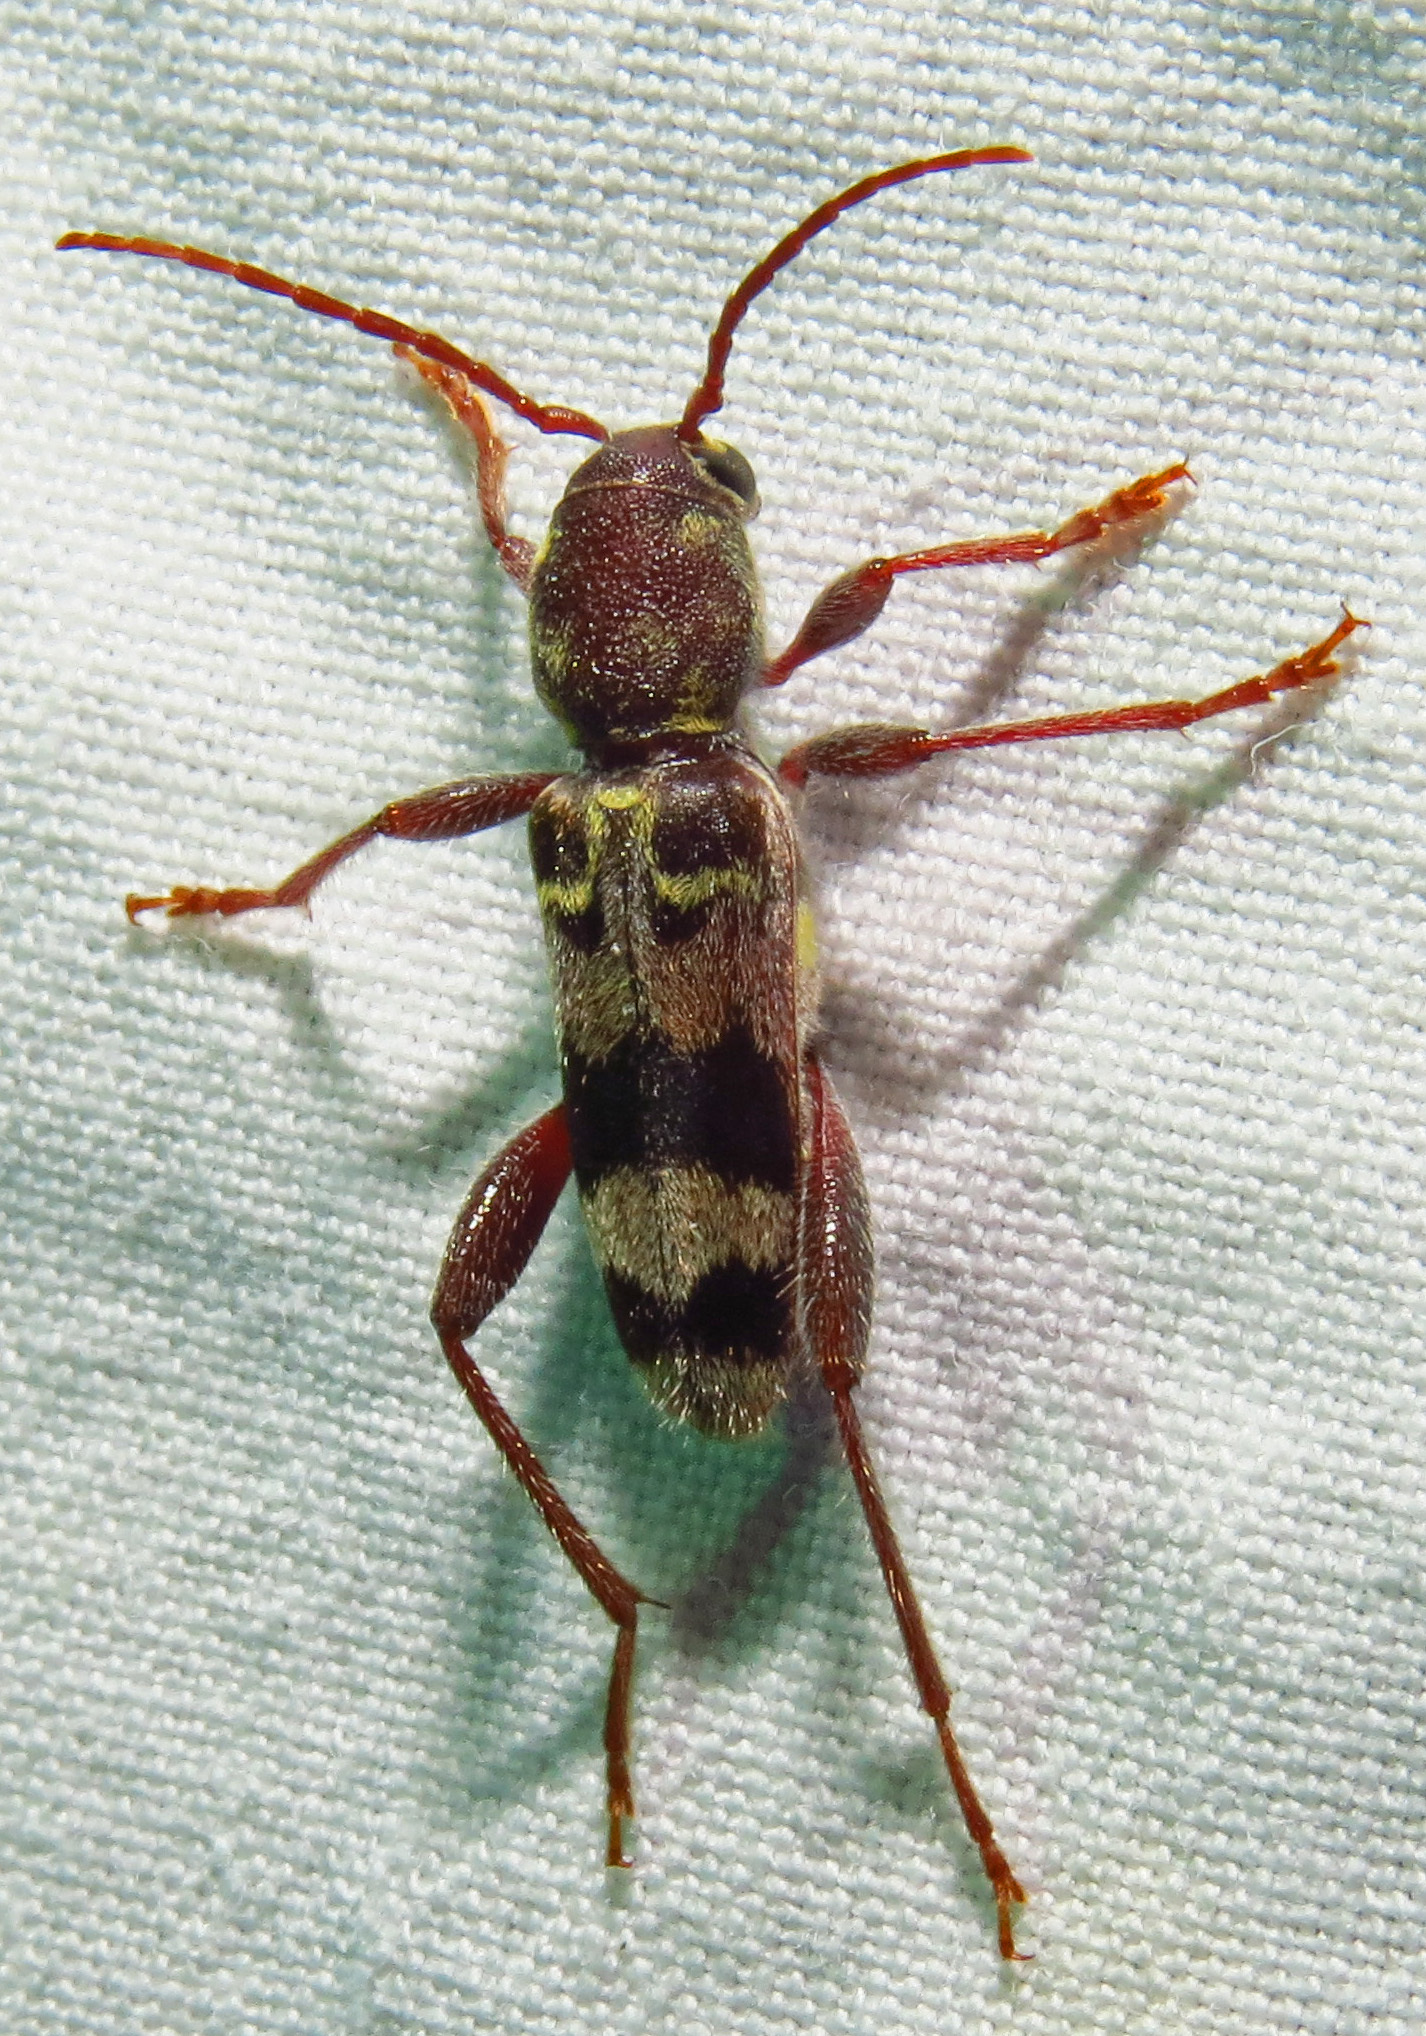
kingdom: Animalia
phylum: Arthropoda
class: Insecta
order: Coleoptera
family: Cerambycidae
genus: Xylotrechus
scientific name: Xylotrechus colonus
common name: Long-horned beetle
